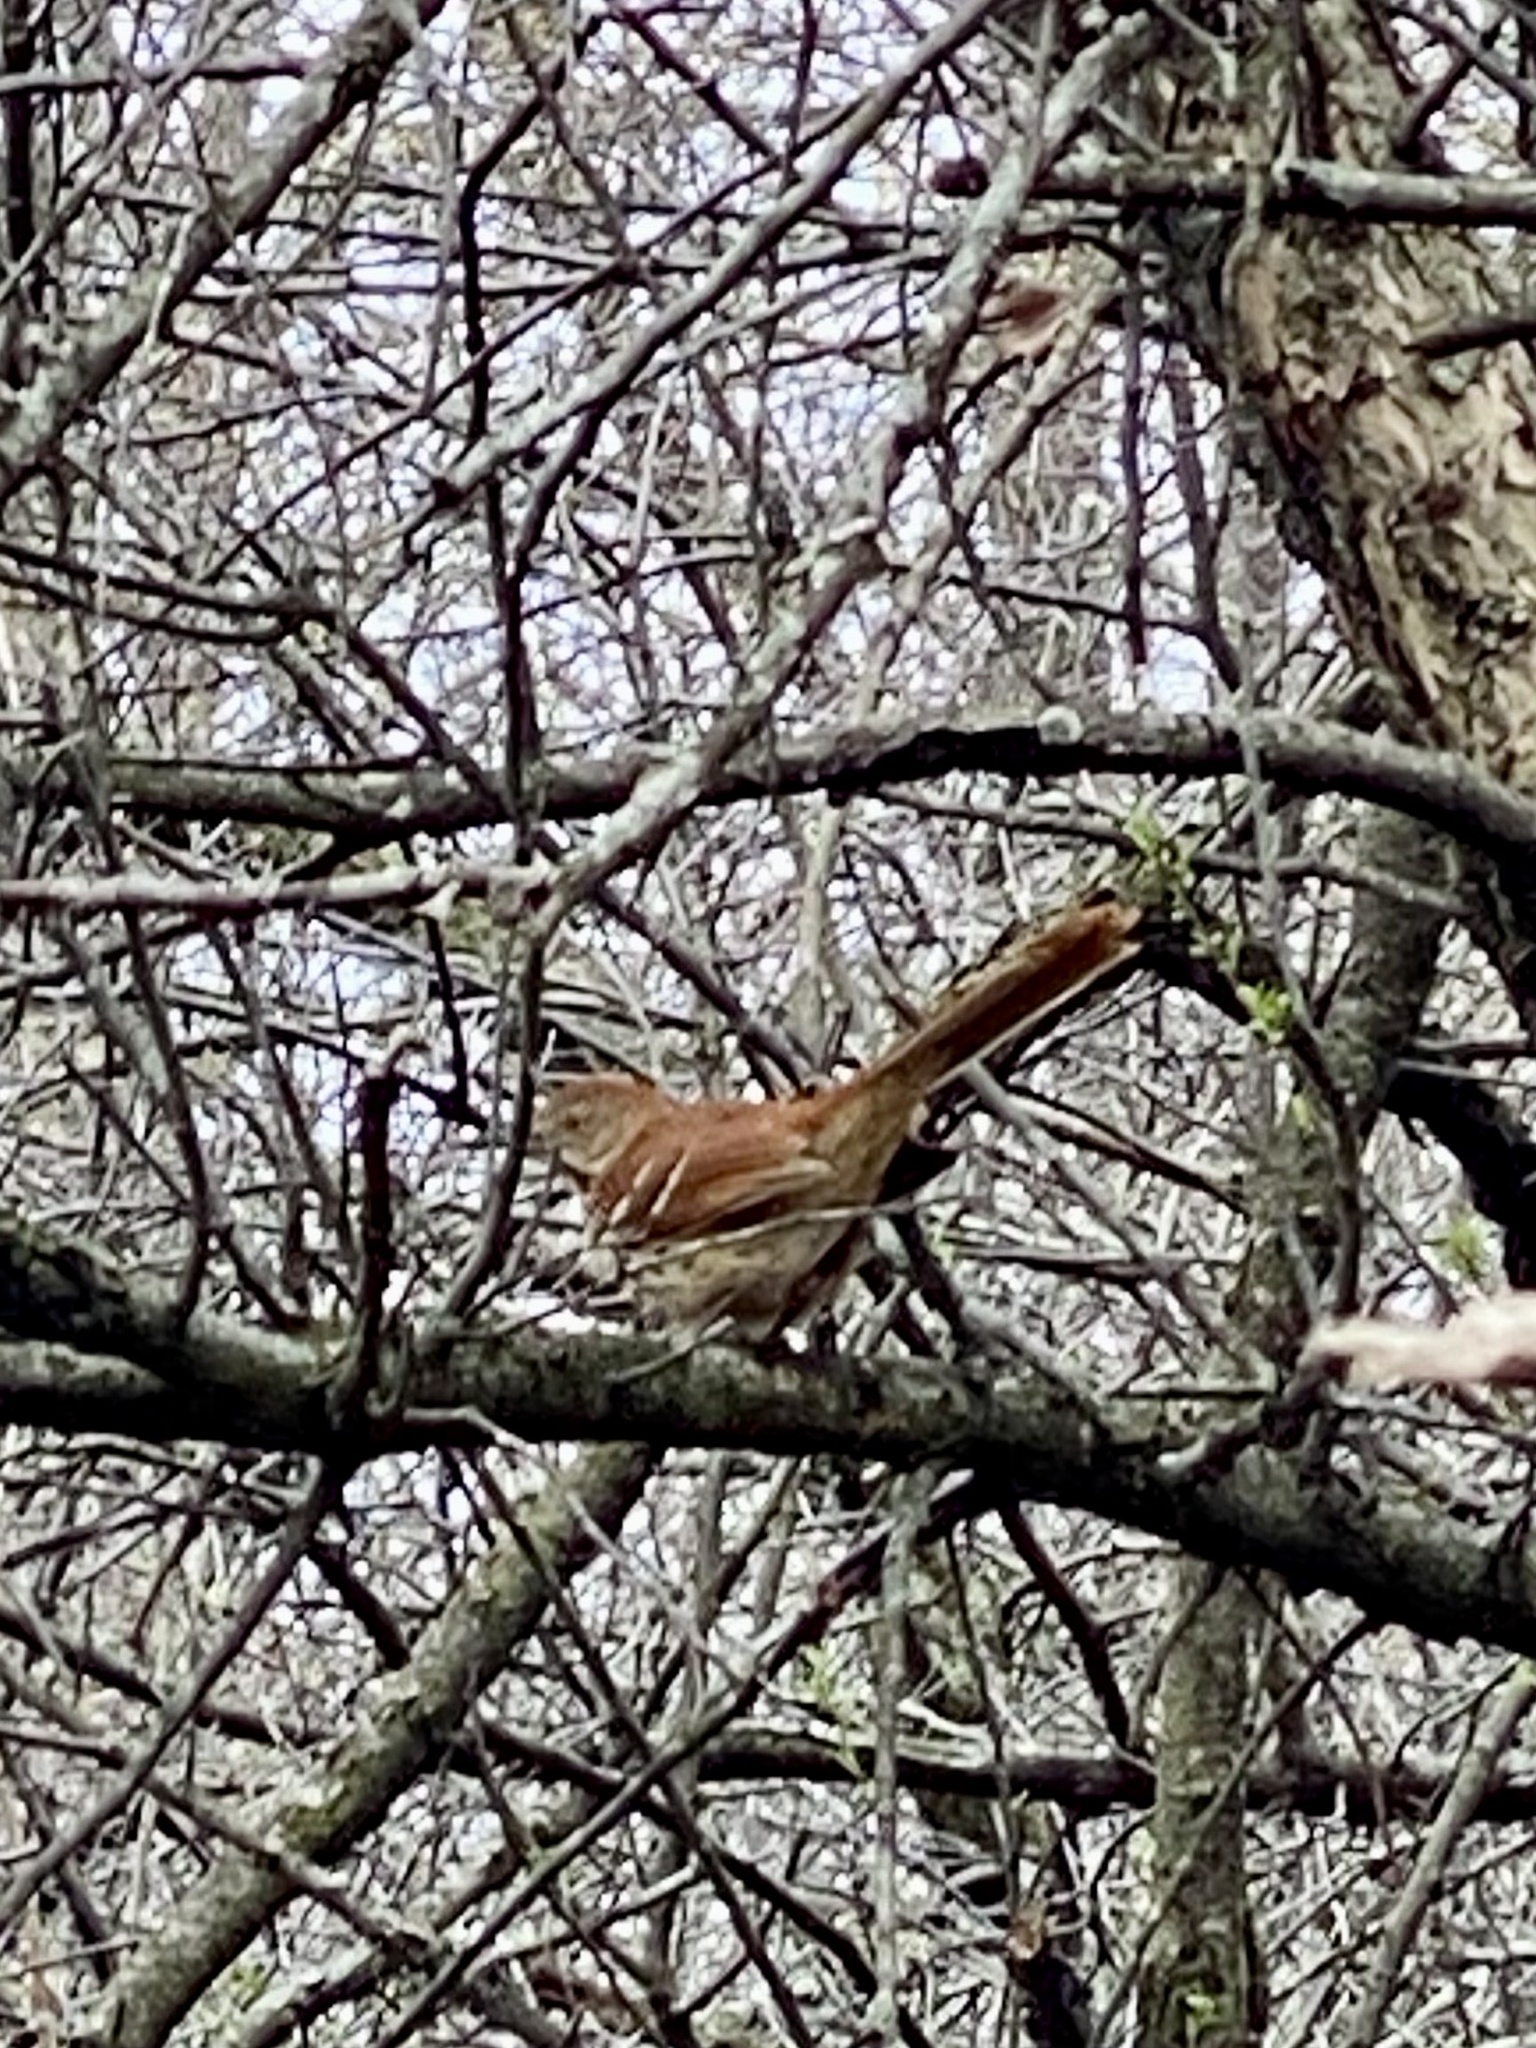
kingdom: Animalia
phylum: Chordata
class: Aves
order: Passeriformes
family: Mimidae
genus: Toxostoma
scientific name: Toxostoma rufum
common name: Brown thrasher
